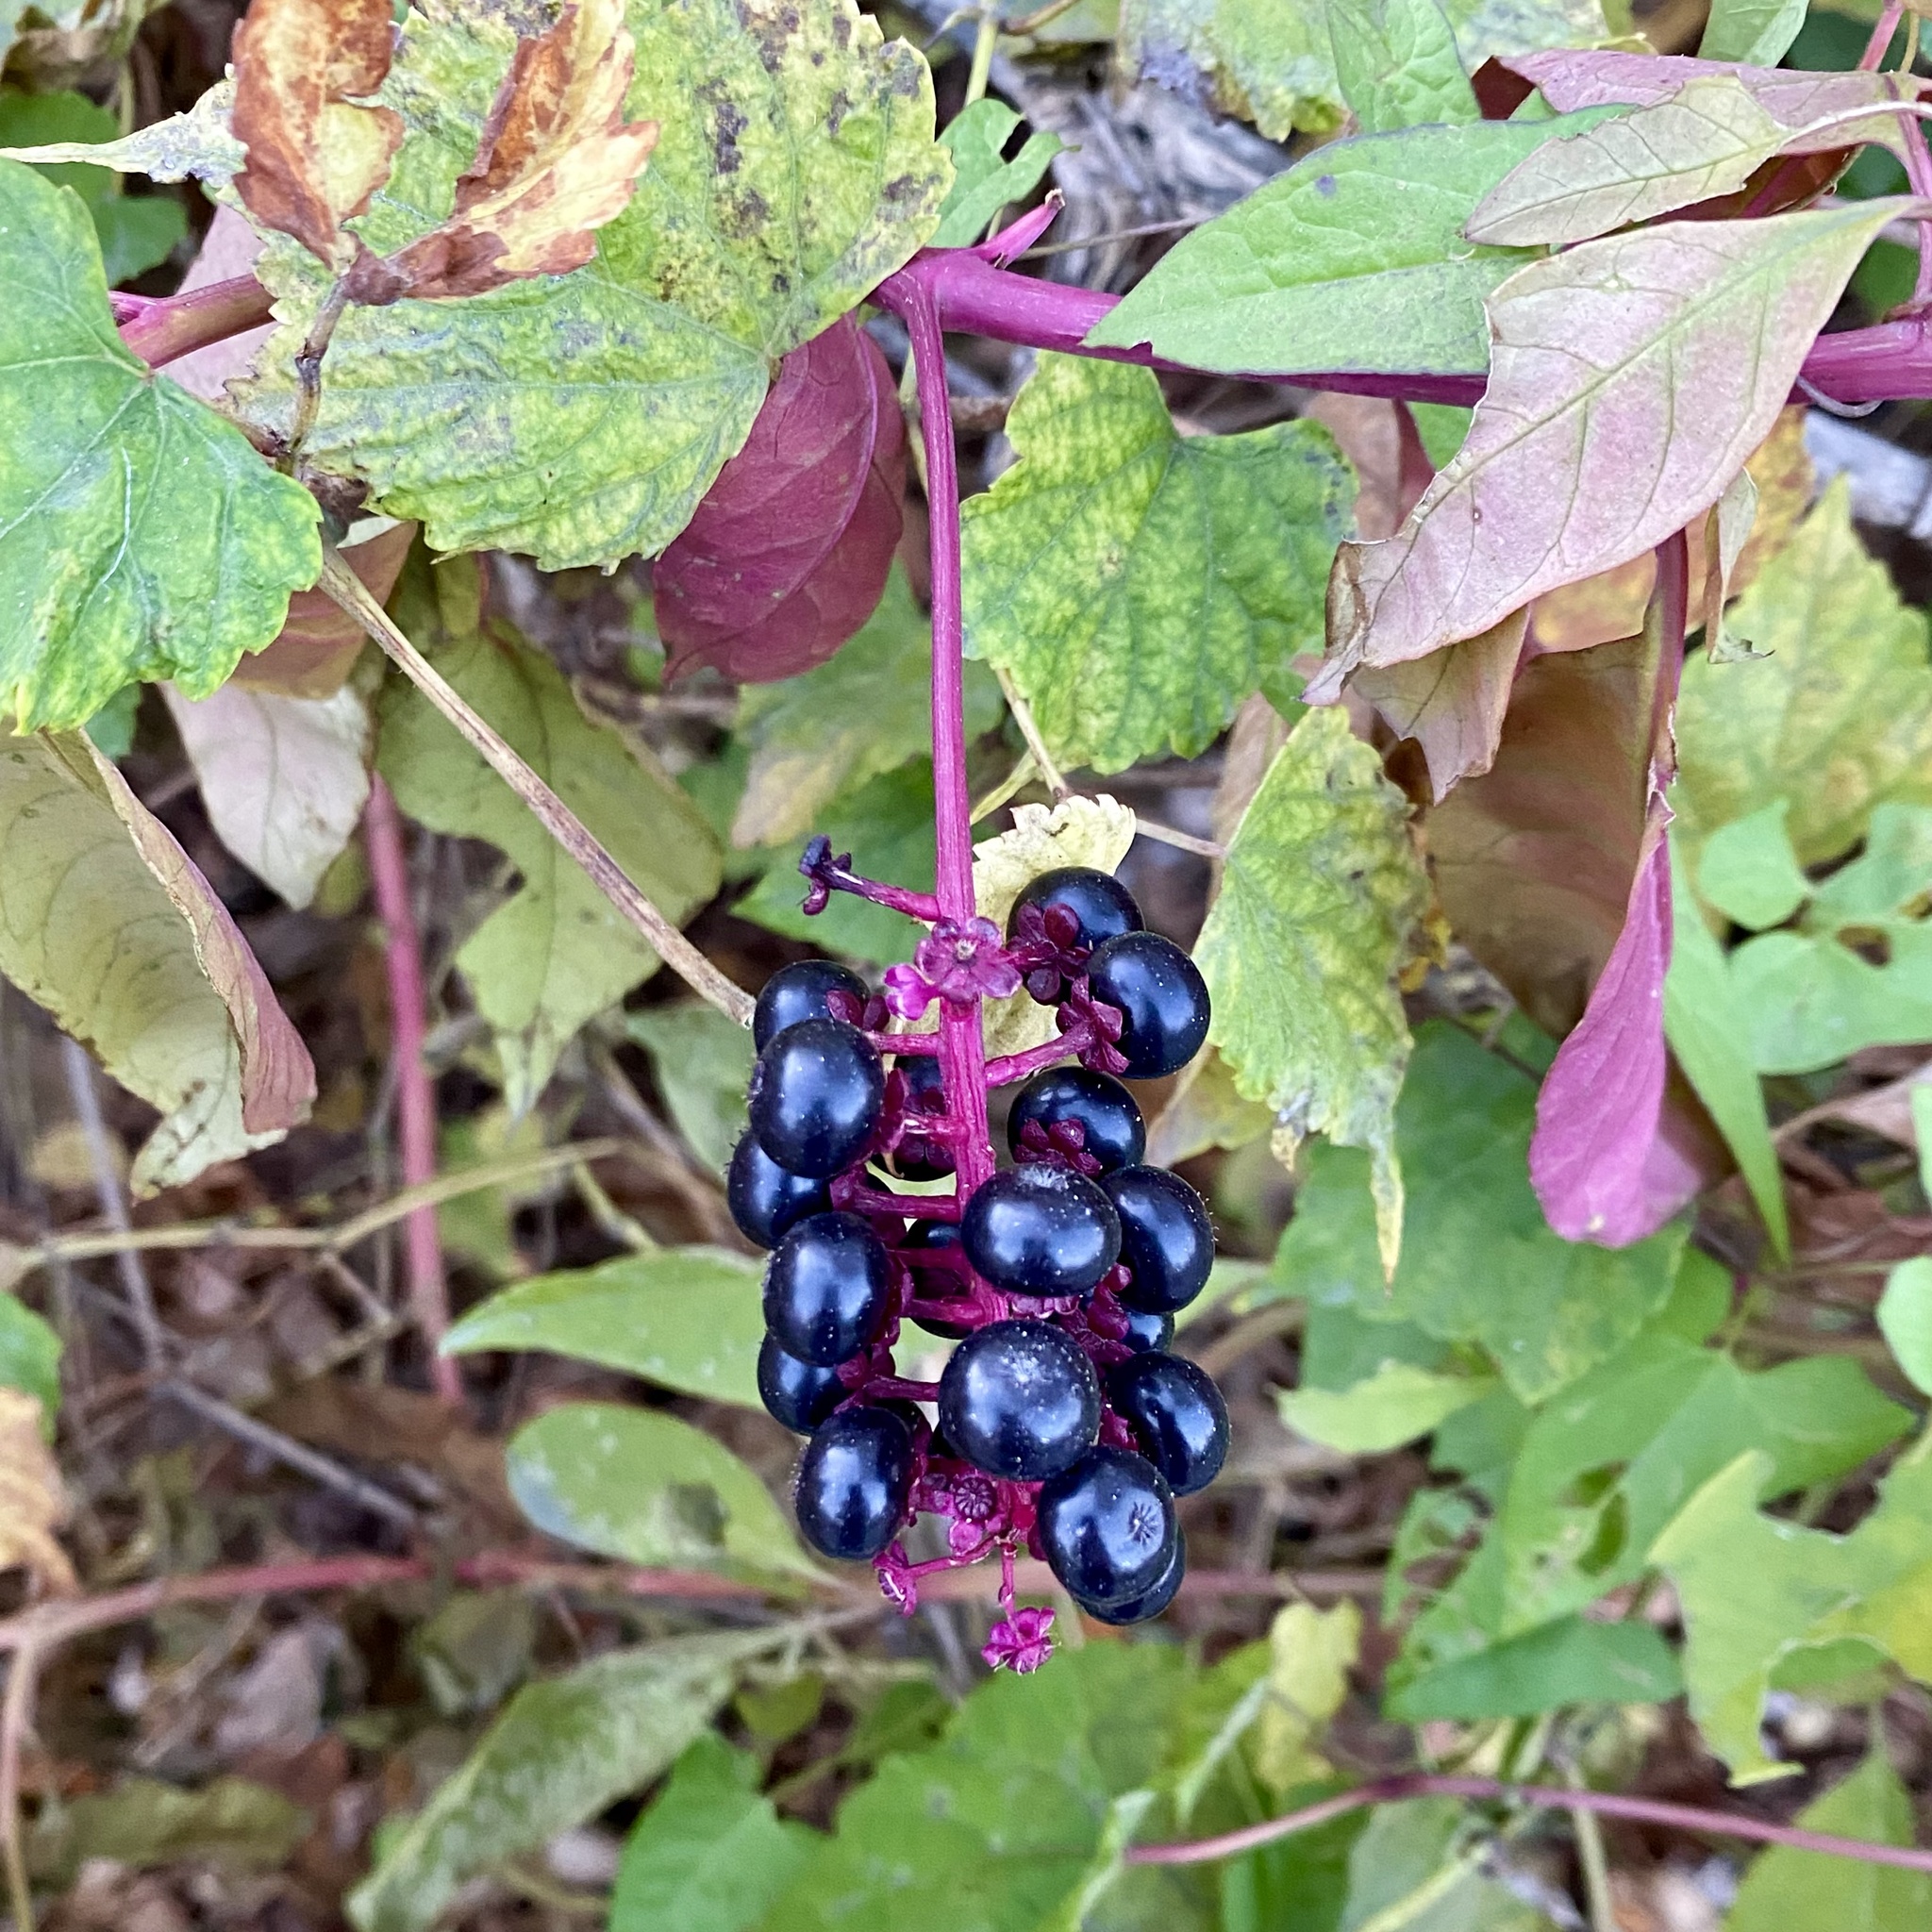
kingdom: Plantae
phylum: Tracheophyta
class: Magnoliopsida
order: Caryophyllales
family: Phytolaccaceae
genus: Phytolacca
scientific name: Phytolacca americana
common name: American pokeweed
